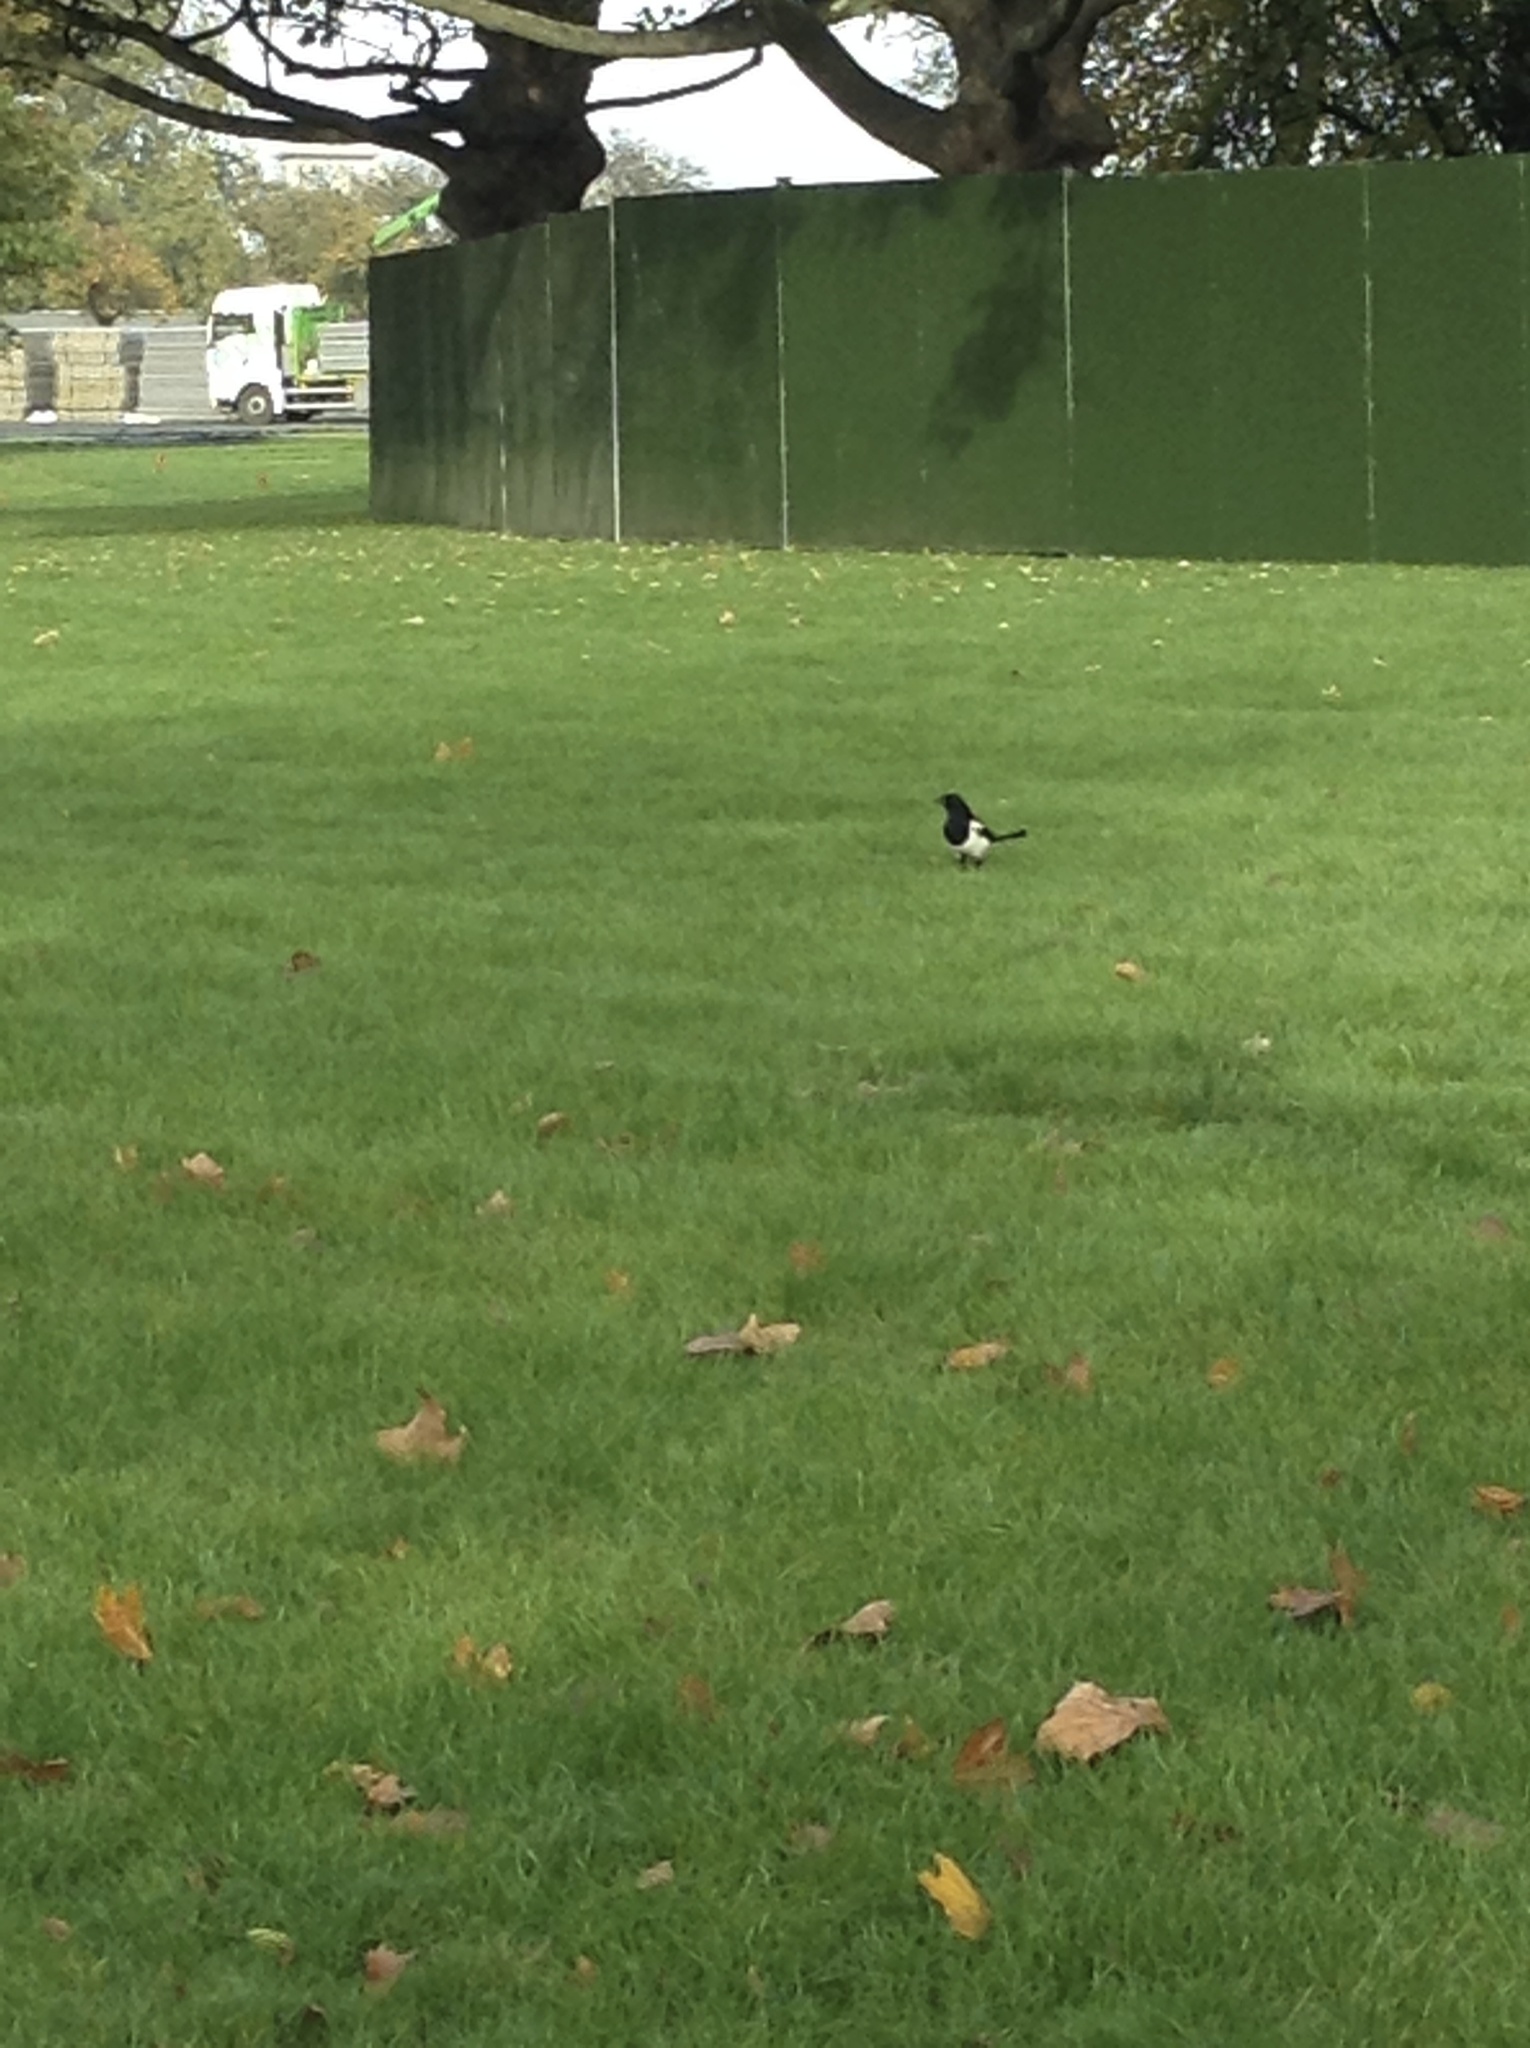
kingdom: Animalia
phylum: Chordata
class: Aves
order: Passeriformes
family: Corvidae
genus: Pica
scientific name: Pica pica
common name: Eurasian magpie
